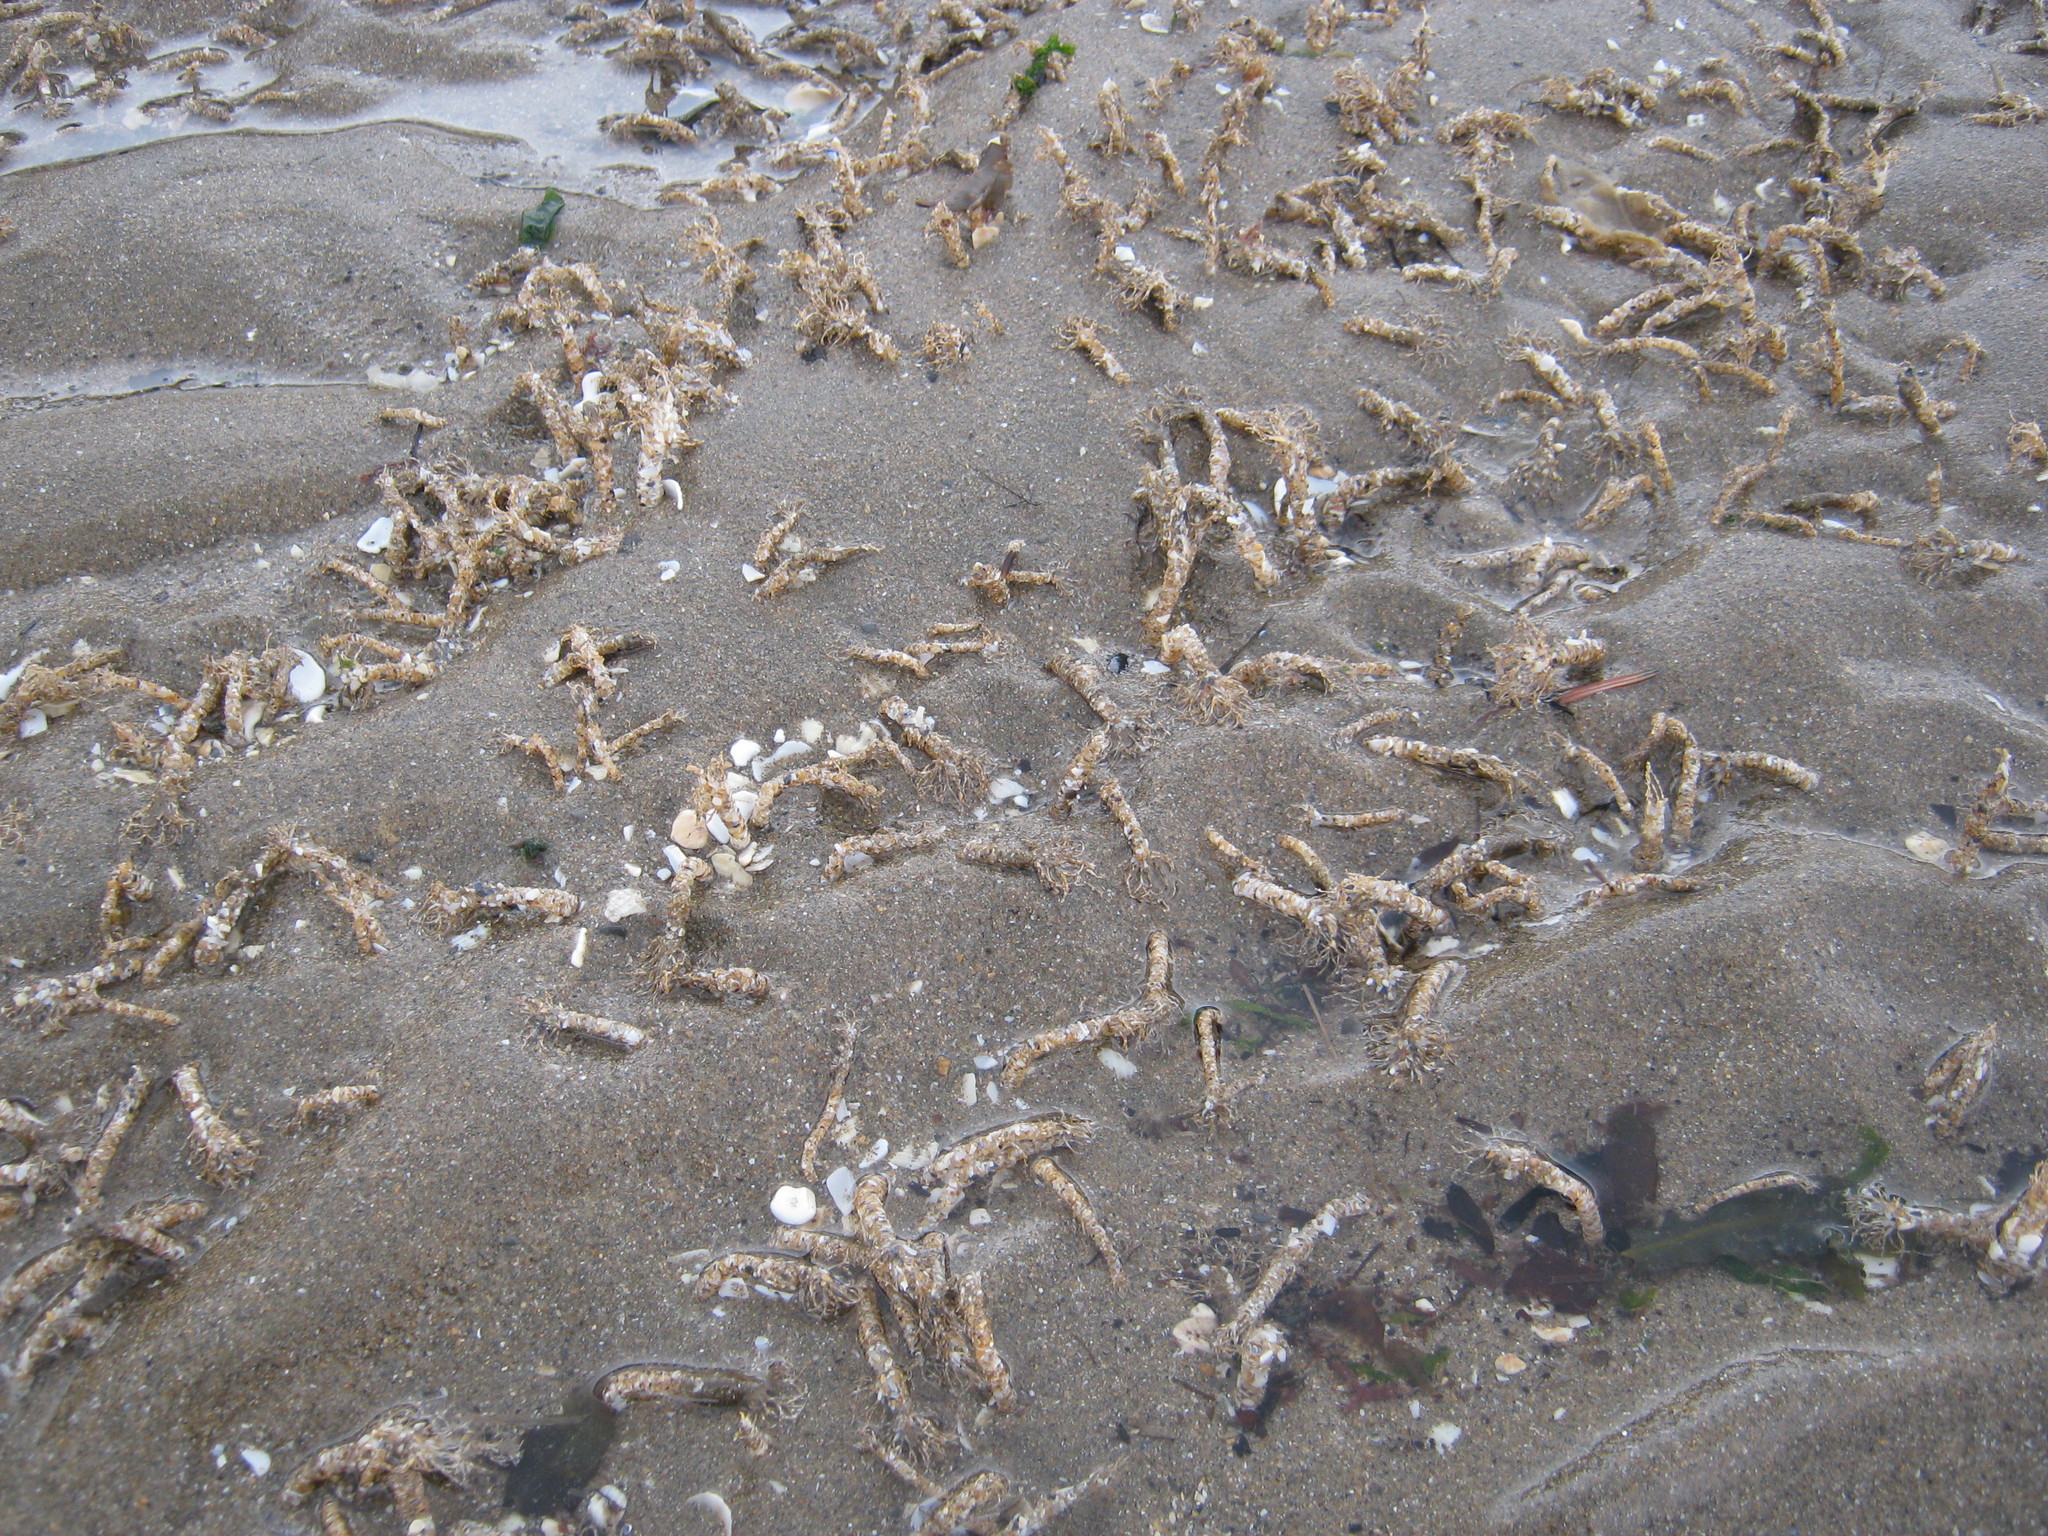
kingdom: Animalia
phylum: Annelida
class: Polychaeta
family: Terebellidae
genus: Lanice
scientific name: Lanice conchilega
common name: Sand mason
